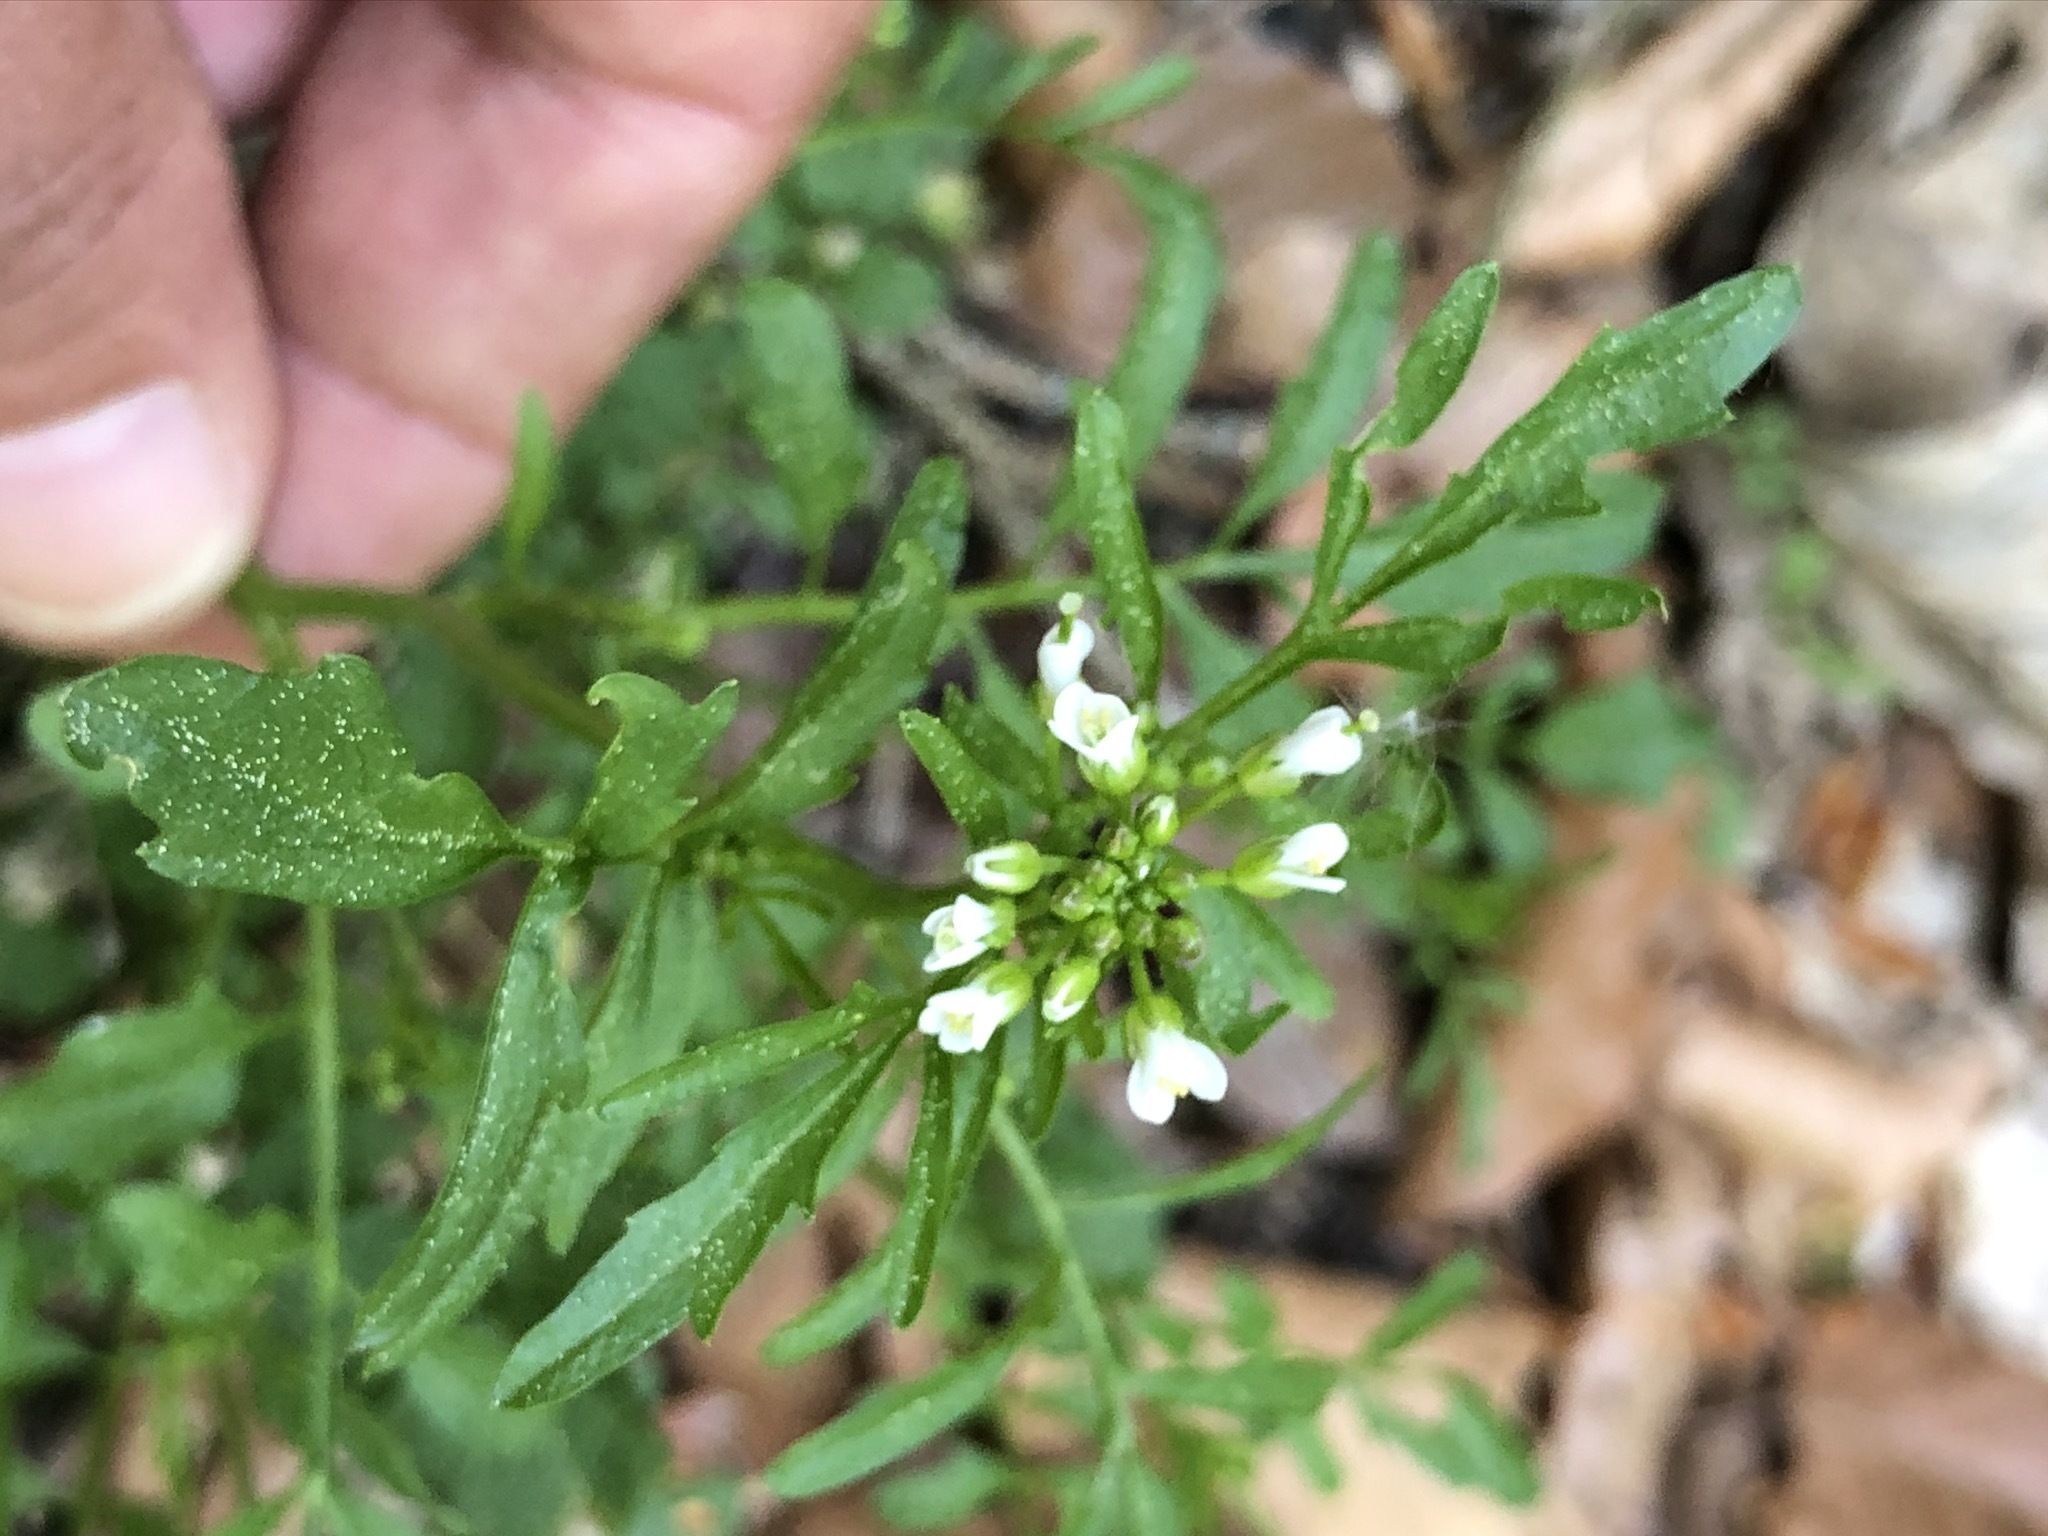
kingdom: Plantae
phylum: Tracheophyta
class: Magnoliopsida
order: Brassicales
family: Brassicaceae
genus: Cardamine
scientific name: Cardamine flexuosa
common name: Woodland bittercress
